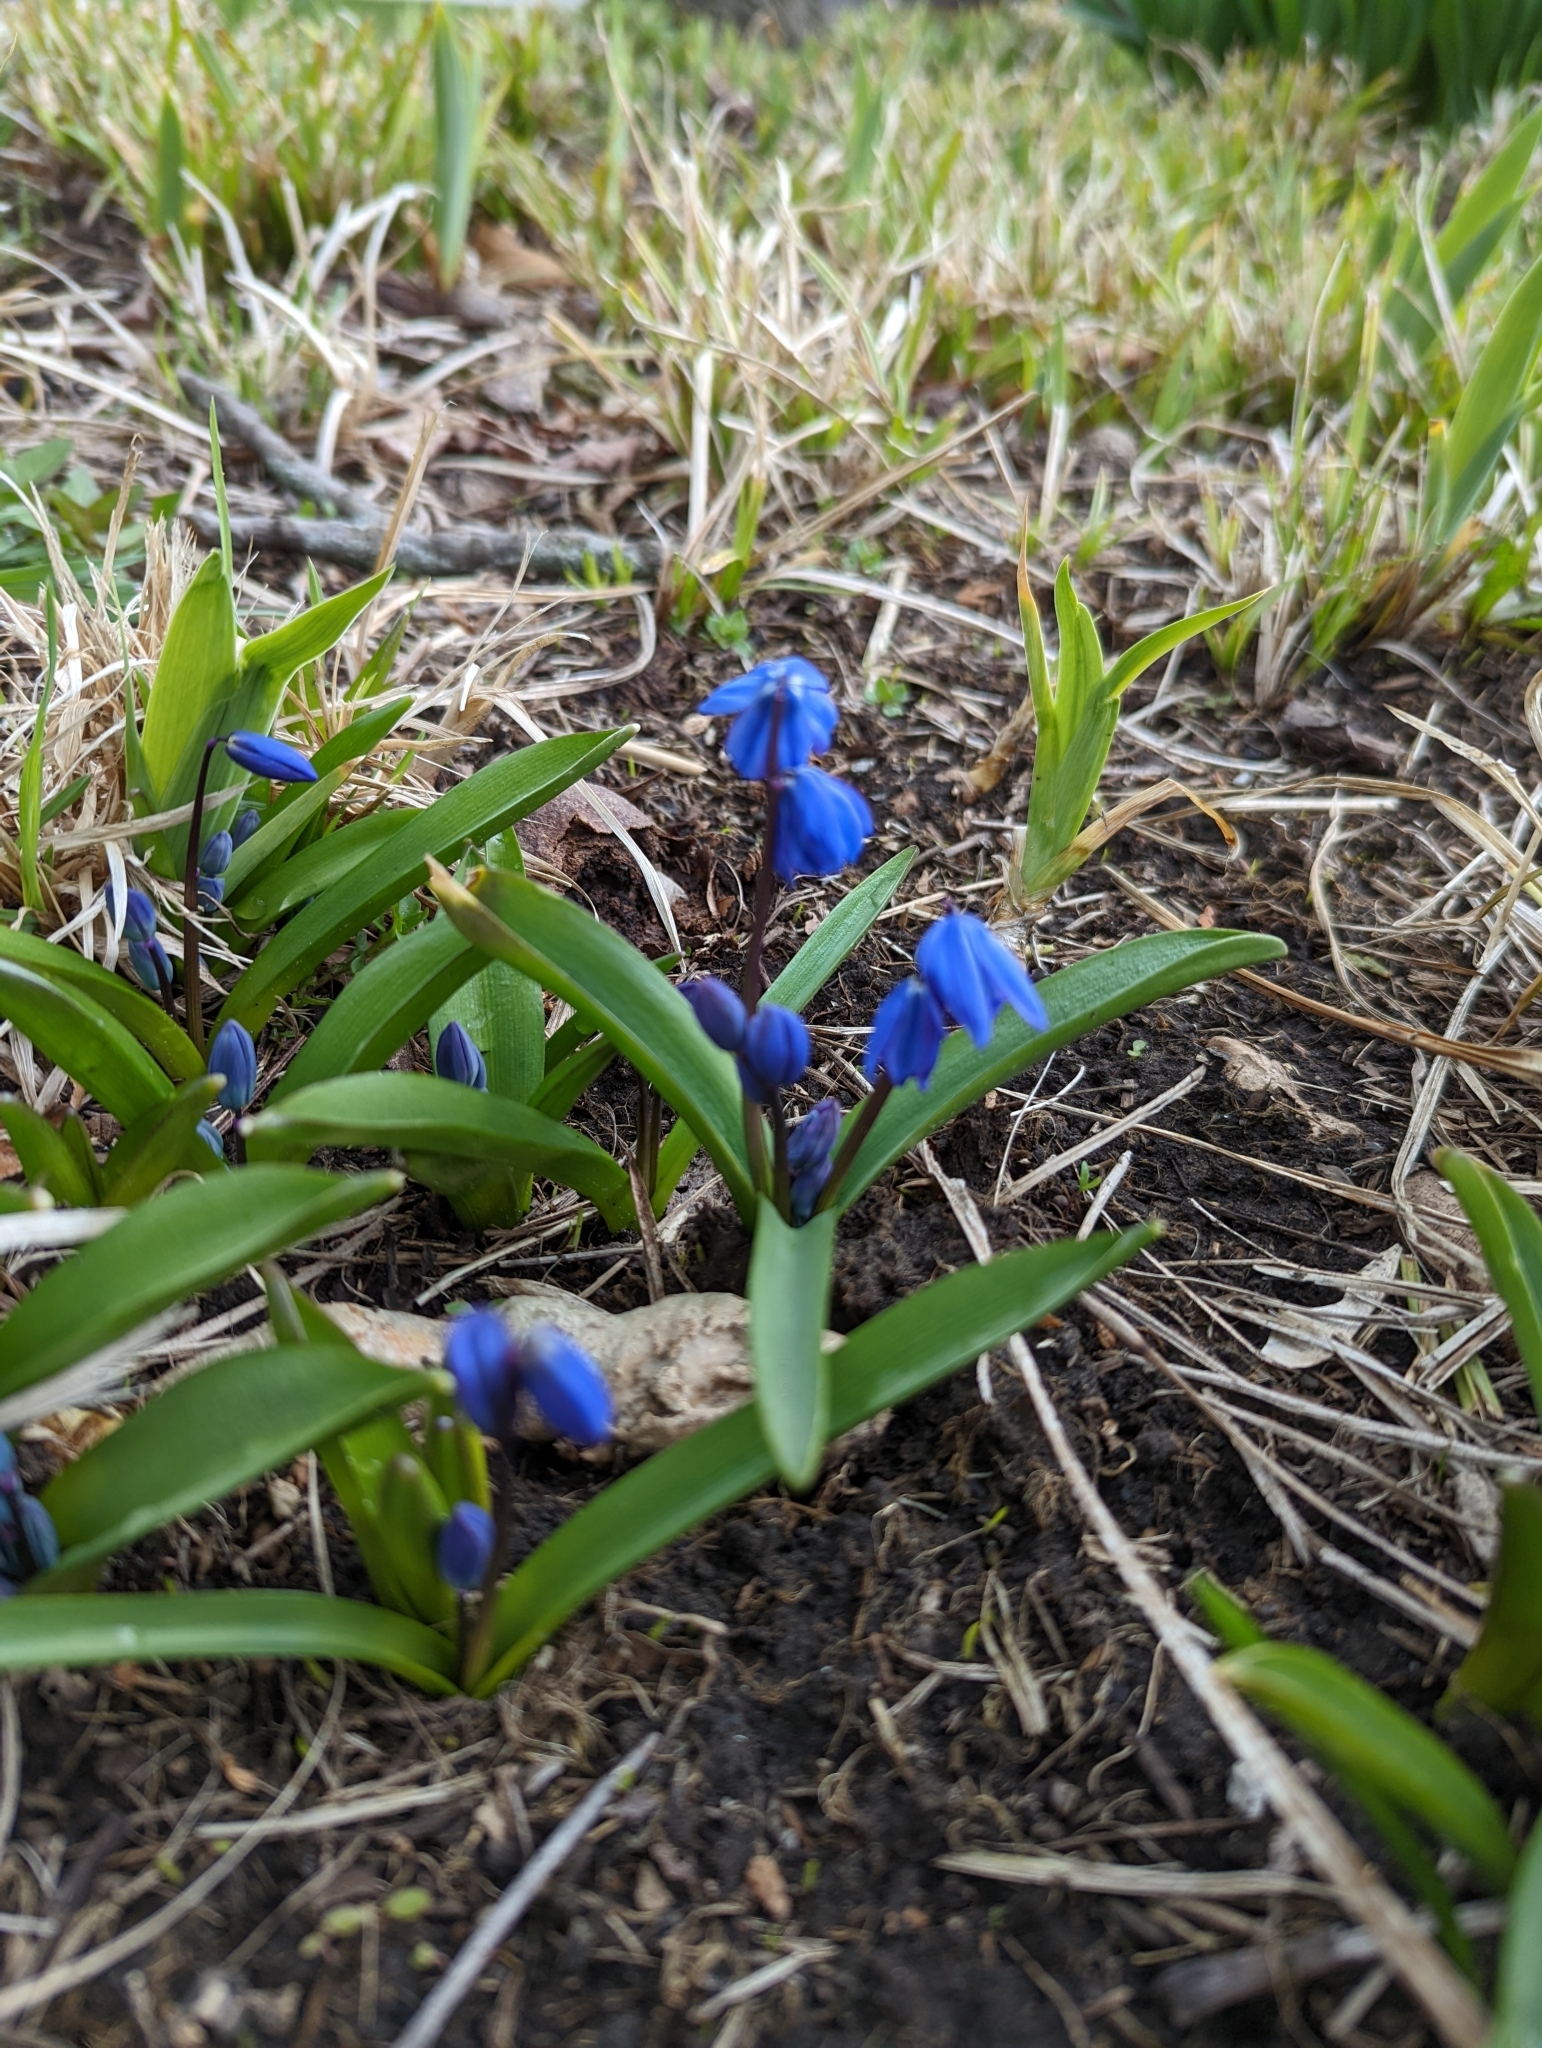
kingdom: Plantae
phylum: Tracheophyta
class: Liliopsida
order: Asparagales
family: Asparagaceae
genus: Scilla
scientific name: Scilla siberica
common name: Siberian squill
